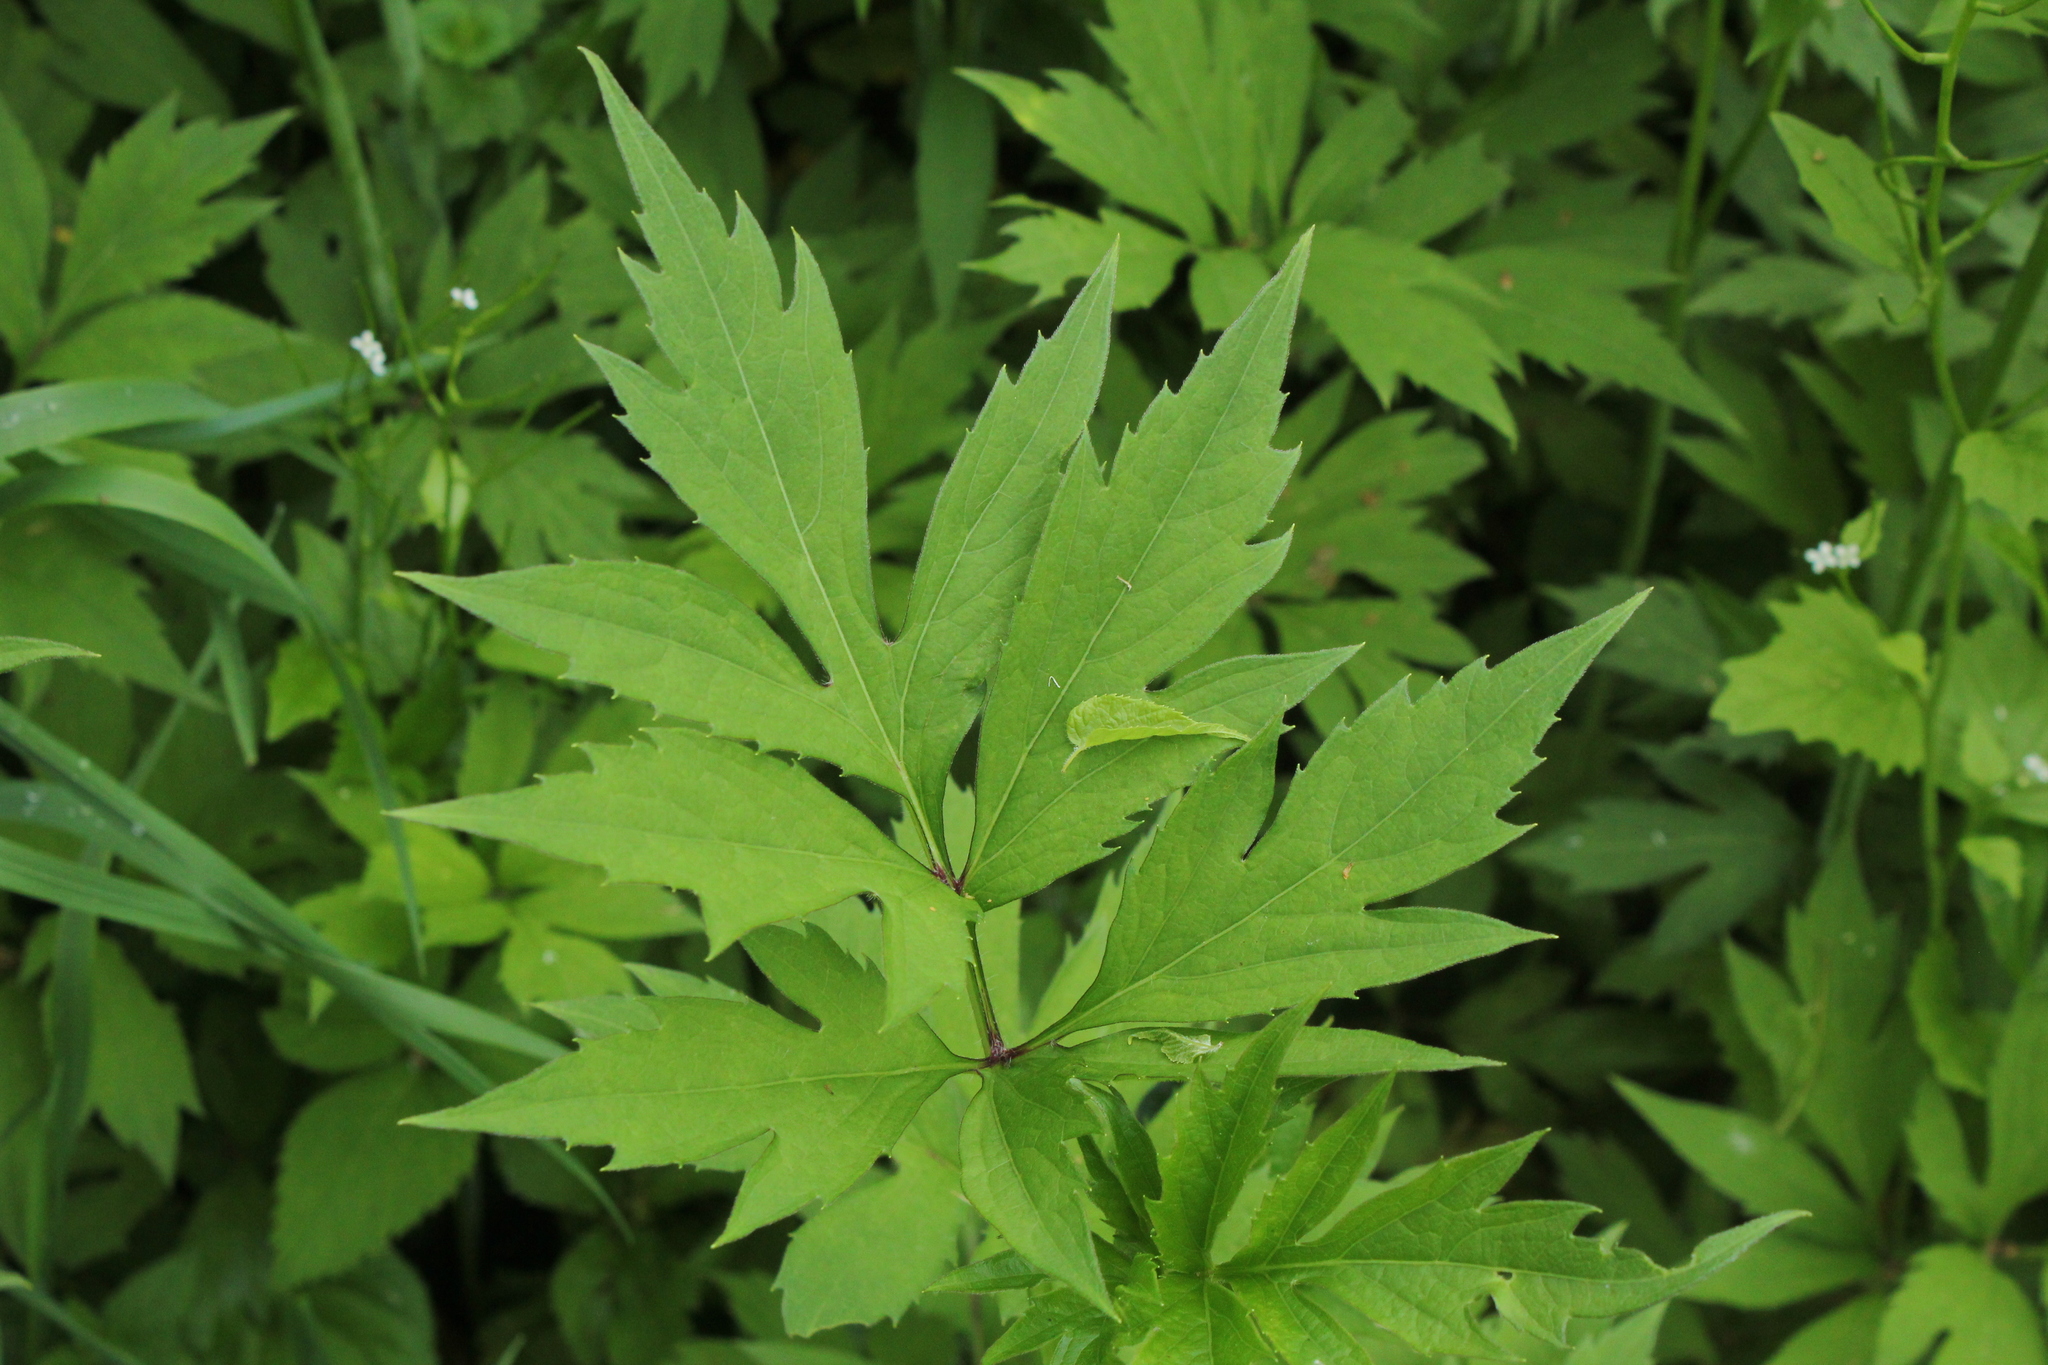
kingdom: Plantae
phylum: Tracheophyta
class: Magnoliopsida
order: Asterales
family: Asteraceae
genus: Rudbeckia
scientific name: Rudbeckia laciniata
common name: Coneflower
